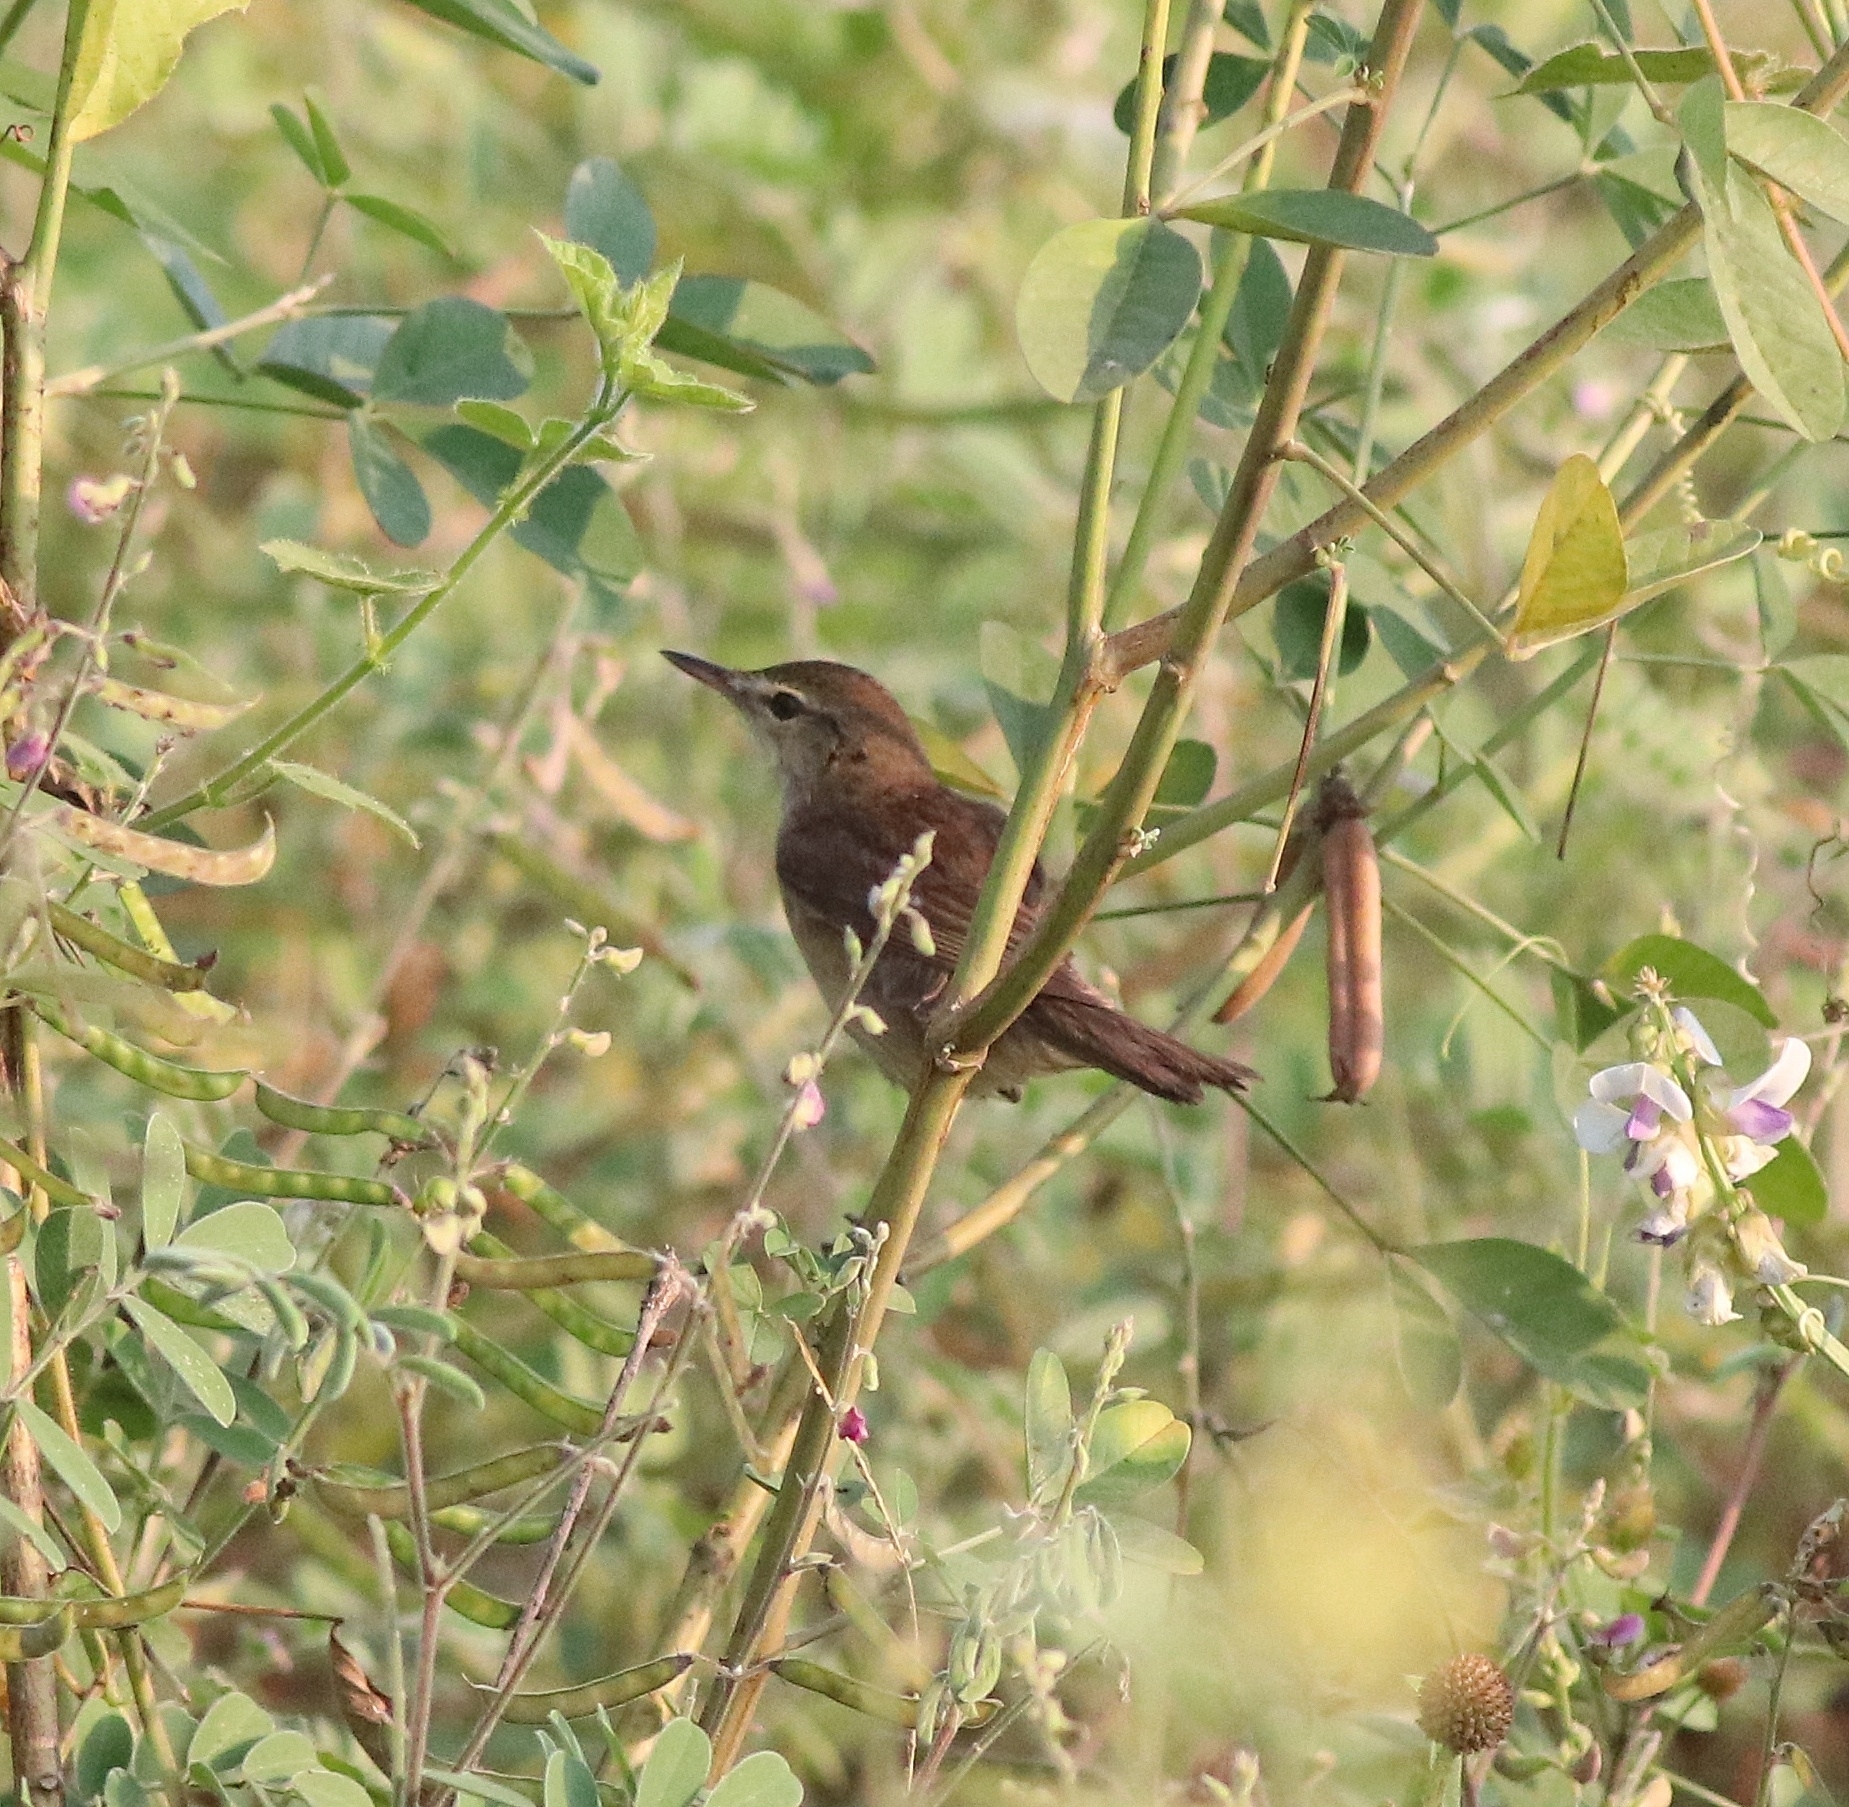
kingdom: Animalia
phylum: Chordata
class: Aves
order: Passeriformes
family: Acrocephalidae
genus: Acrocephalus
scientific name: Acrocephalus dumetorum
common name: Blyth's reed warbler
